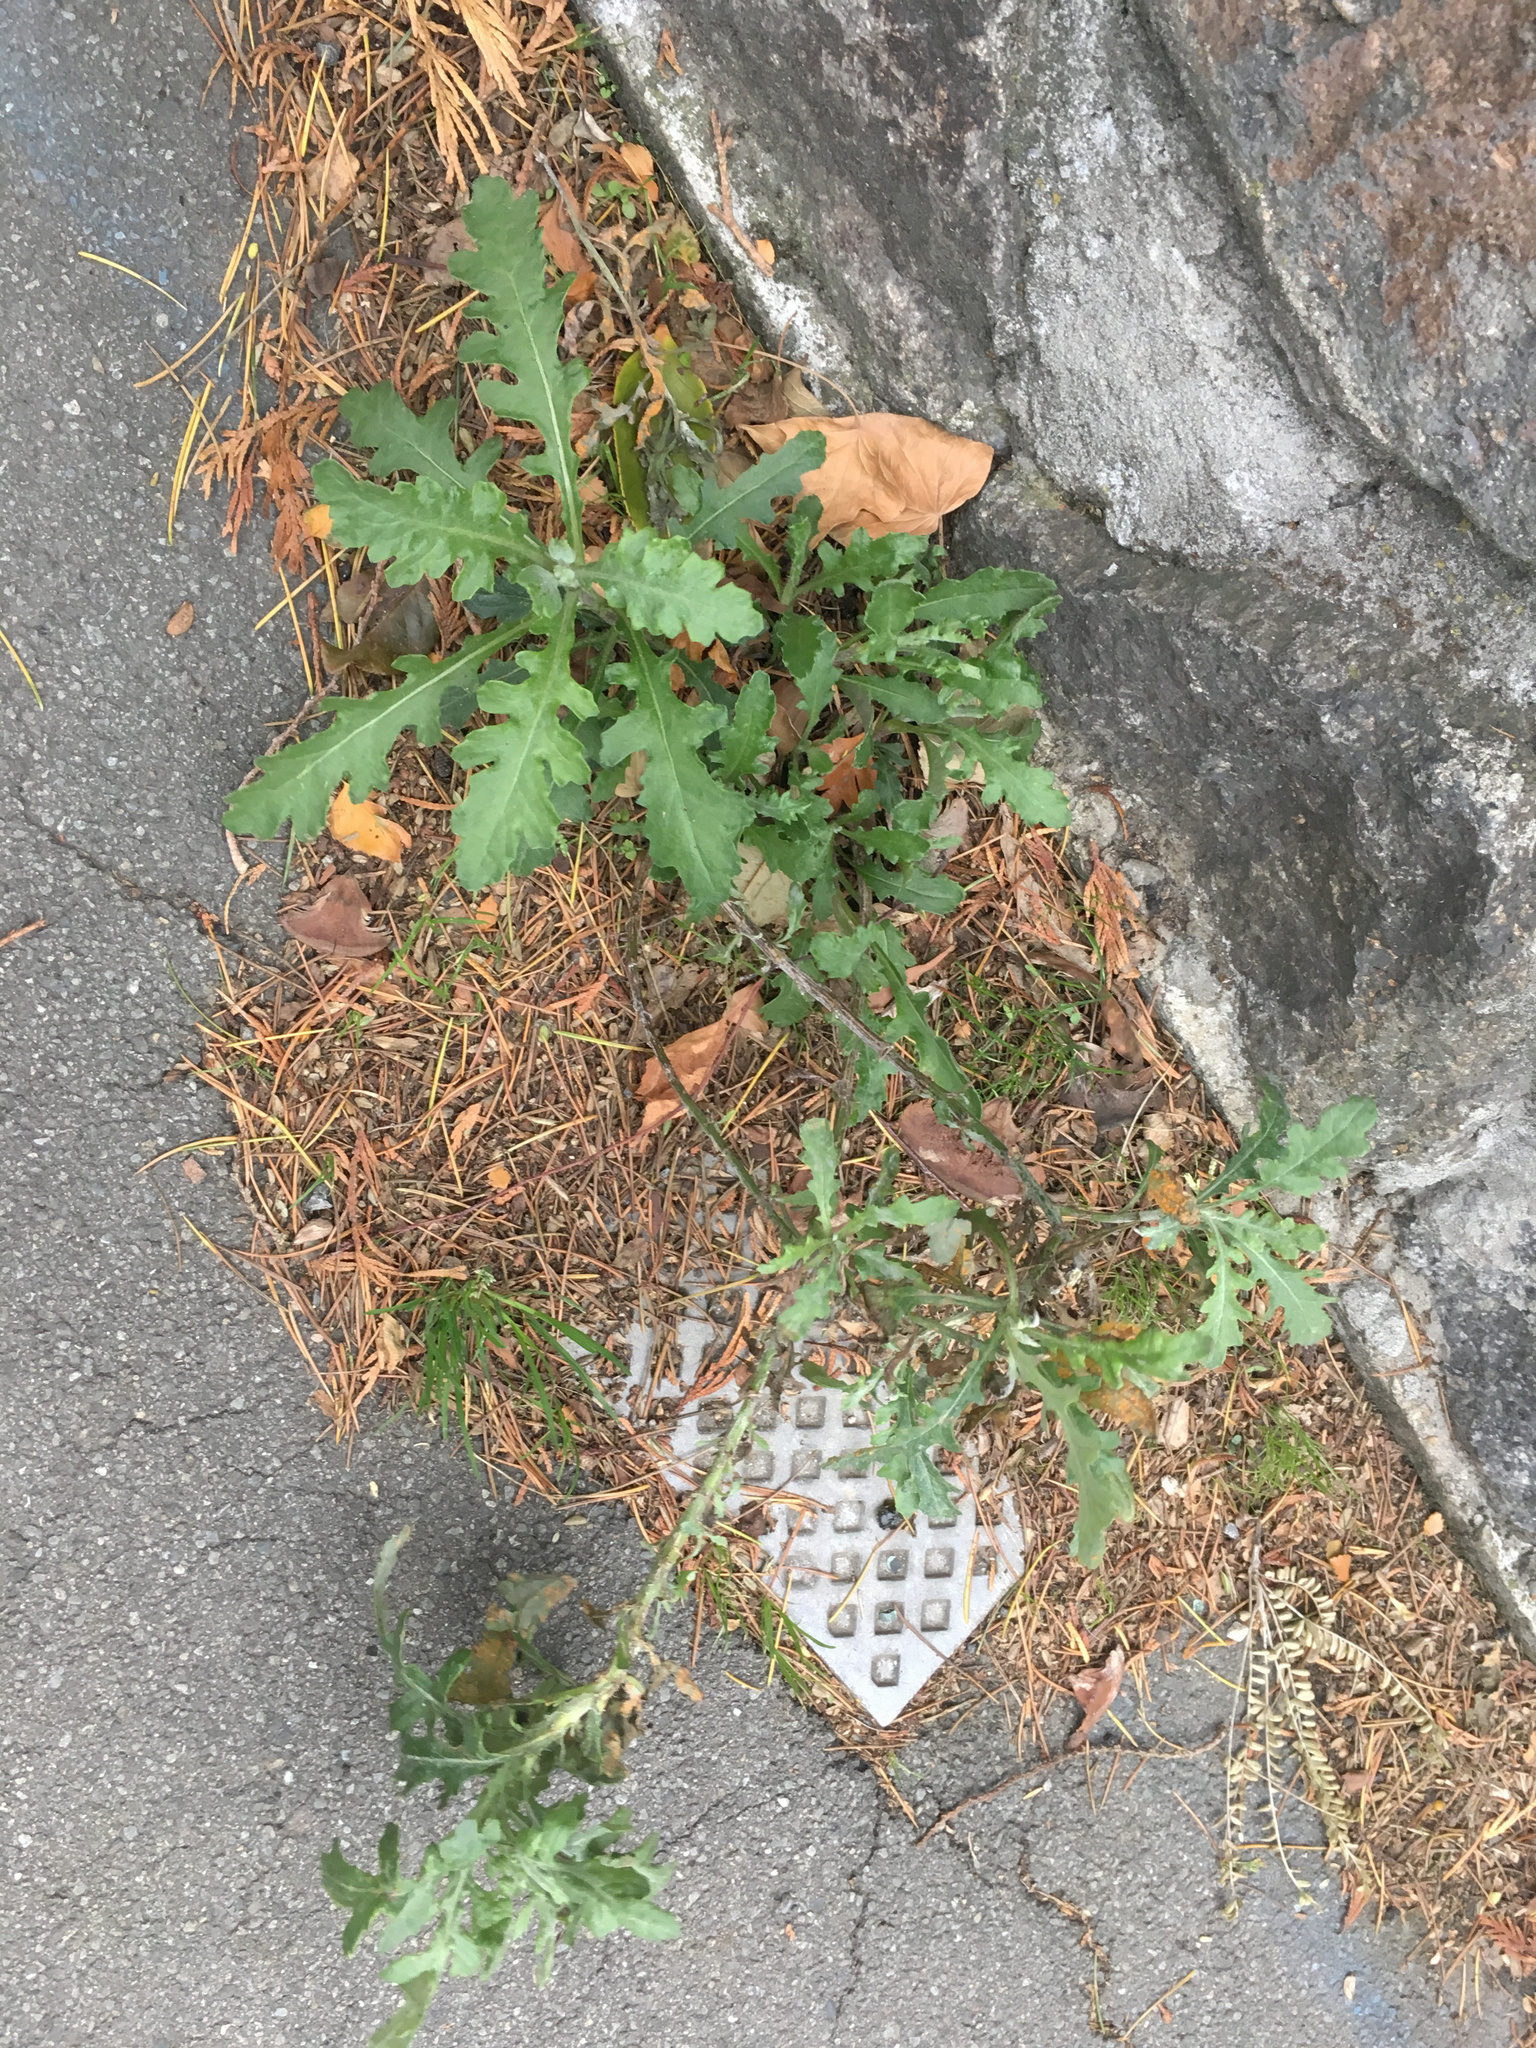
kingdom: Plantae
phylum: Tracheophyta
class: Magnoliopsida
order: Asterales
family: Asteraceae
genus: Senecio
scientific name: Senecio glomeratus
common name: Cutleaf burnweed
